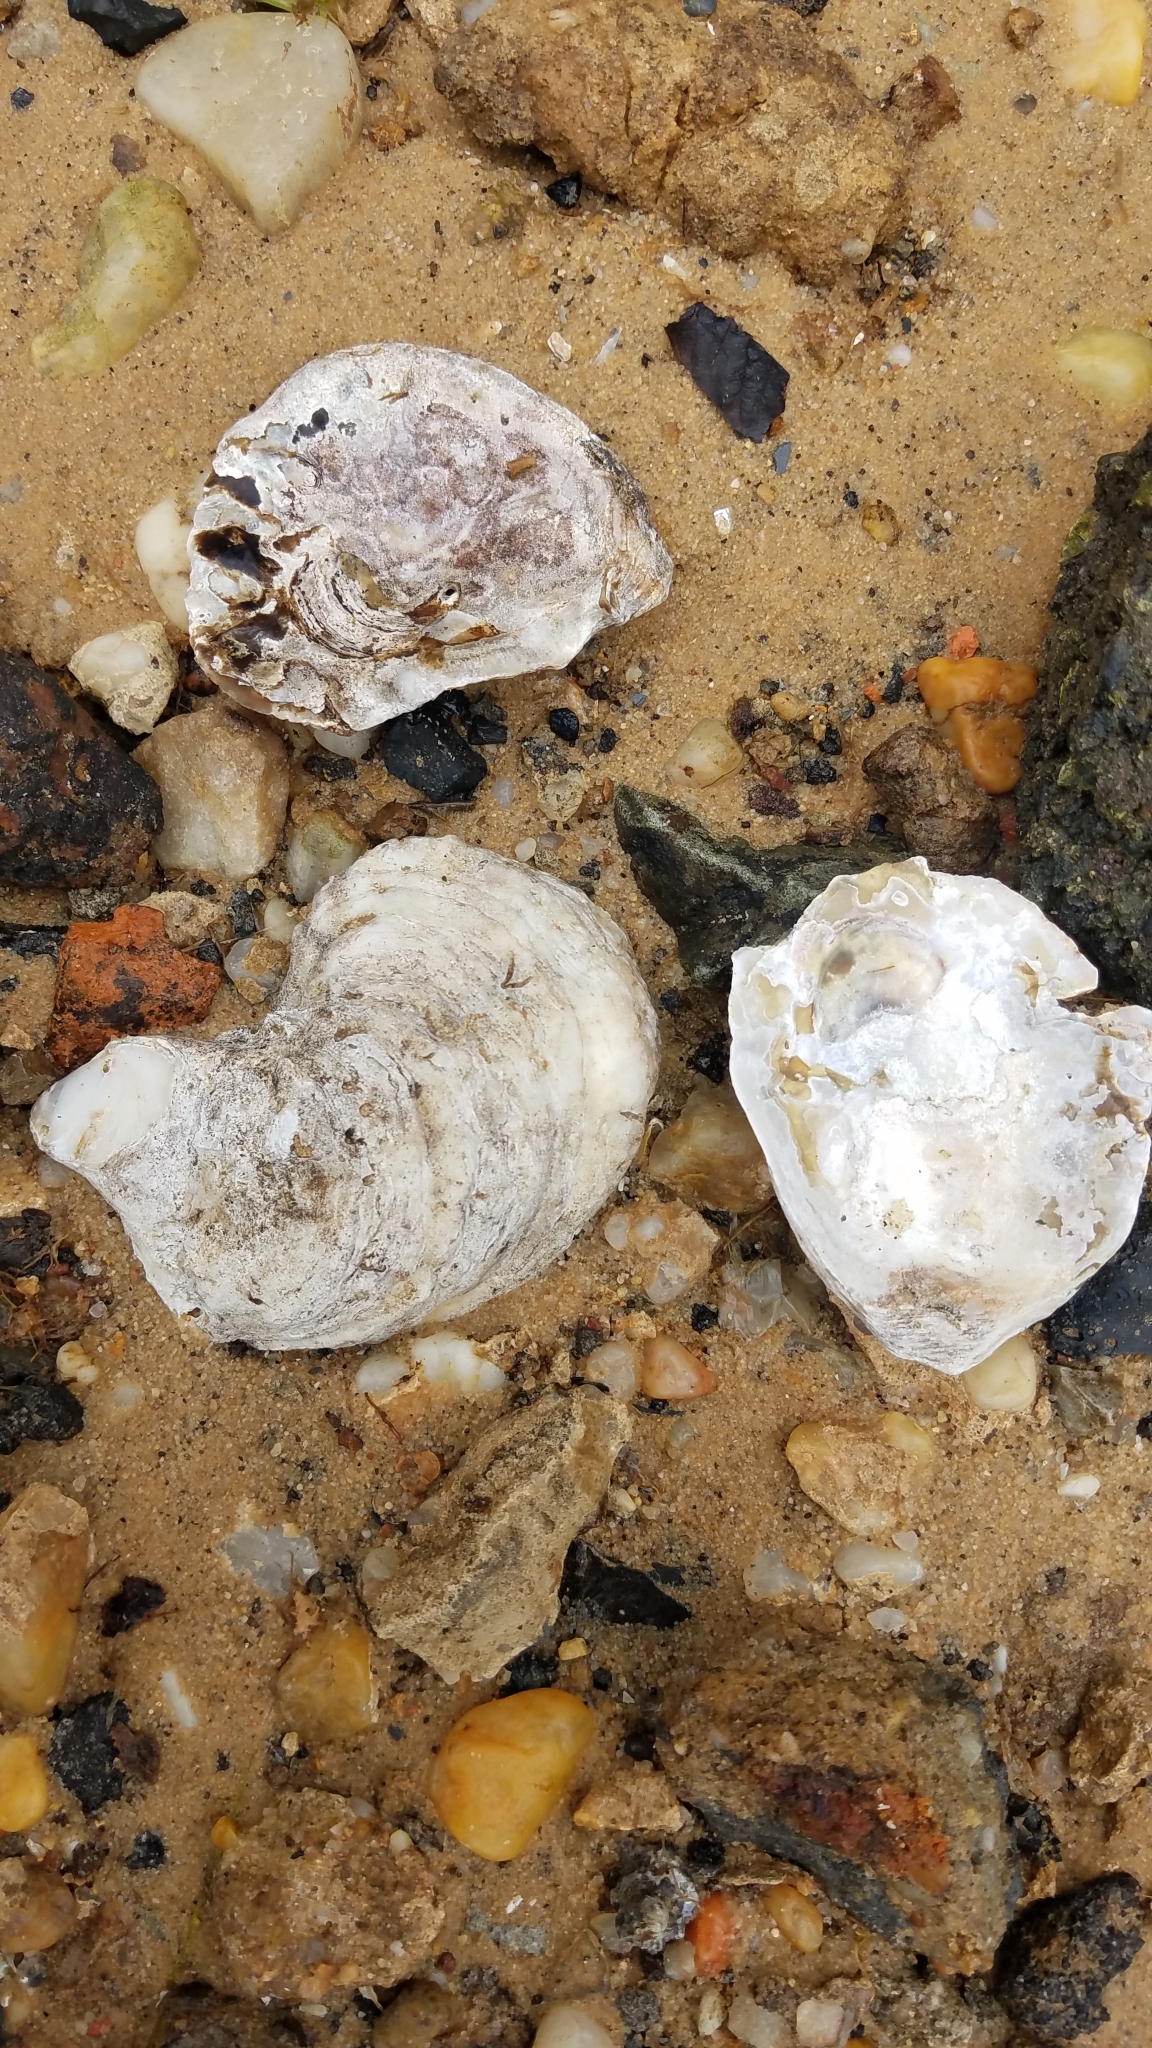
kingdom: Animalia
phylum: Mollusca
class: Bivalvia
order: Ostreida
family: Ostreidae
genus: Crassostrea
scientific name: Crassostrea virginica
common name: American oyster
